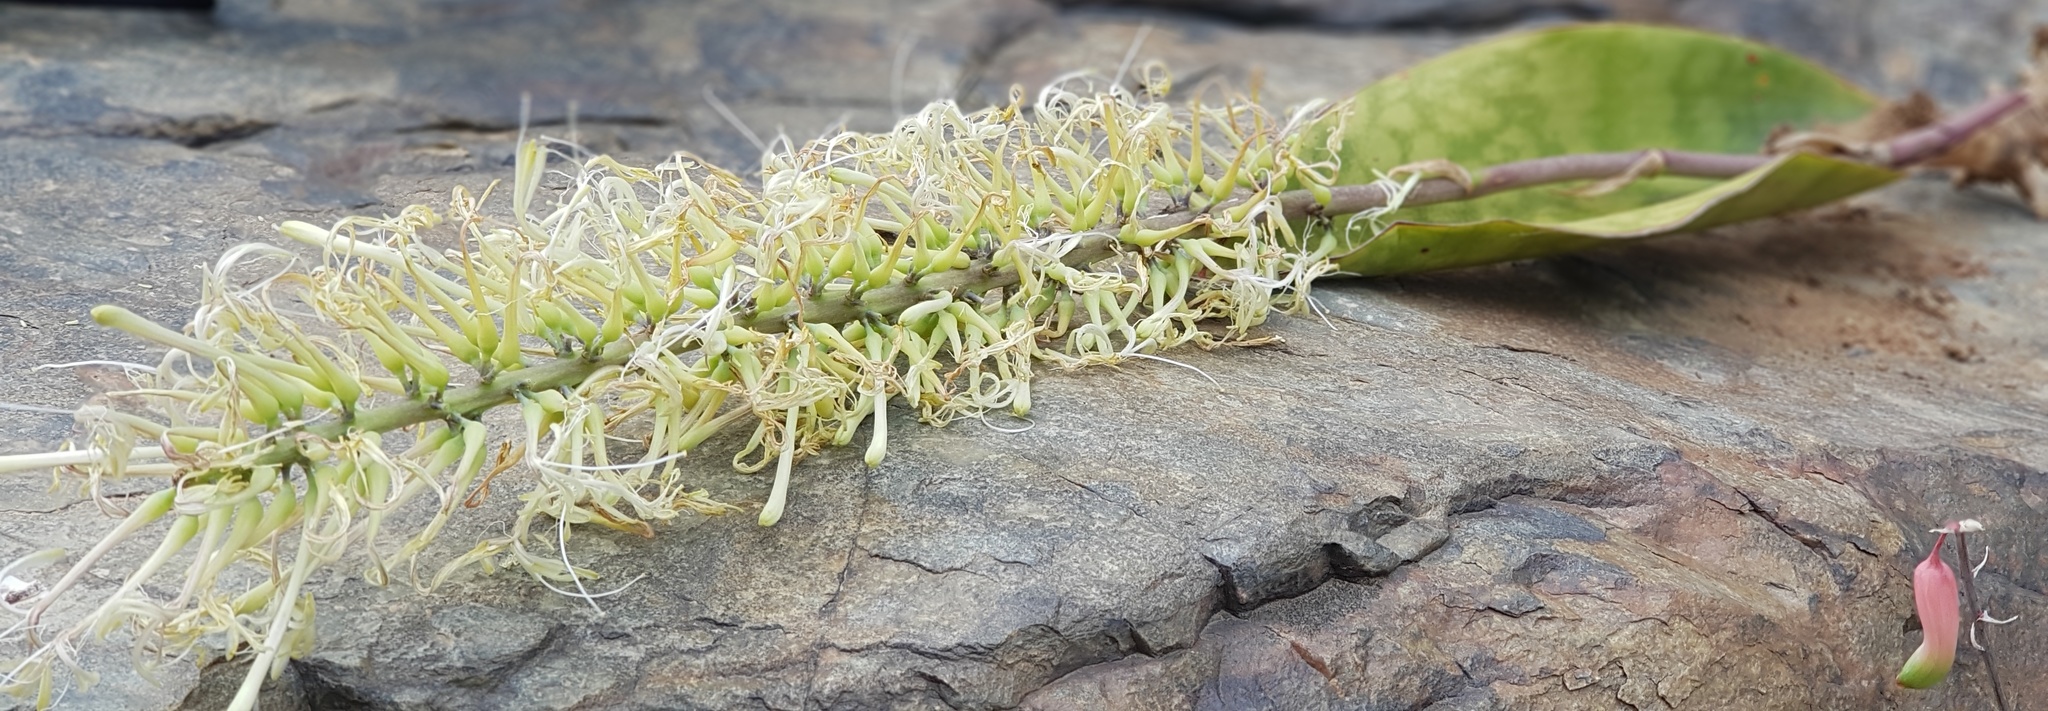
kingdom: Plantae
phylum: Tracheophyta
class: Liliopsida
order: Asparagales
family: Asparagaceae
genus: Dracaena
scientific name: Dracaena hyacinthoides
